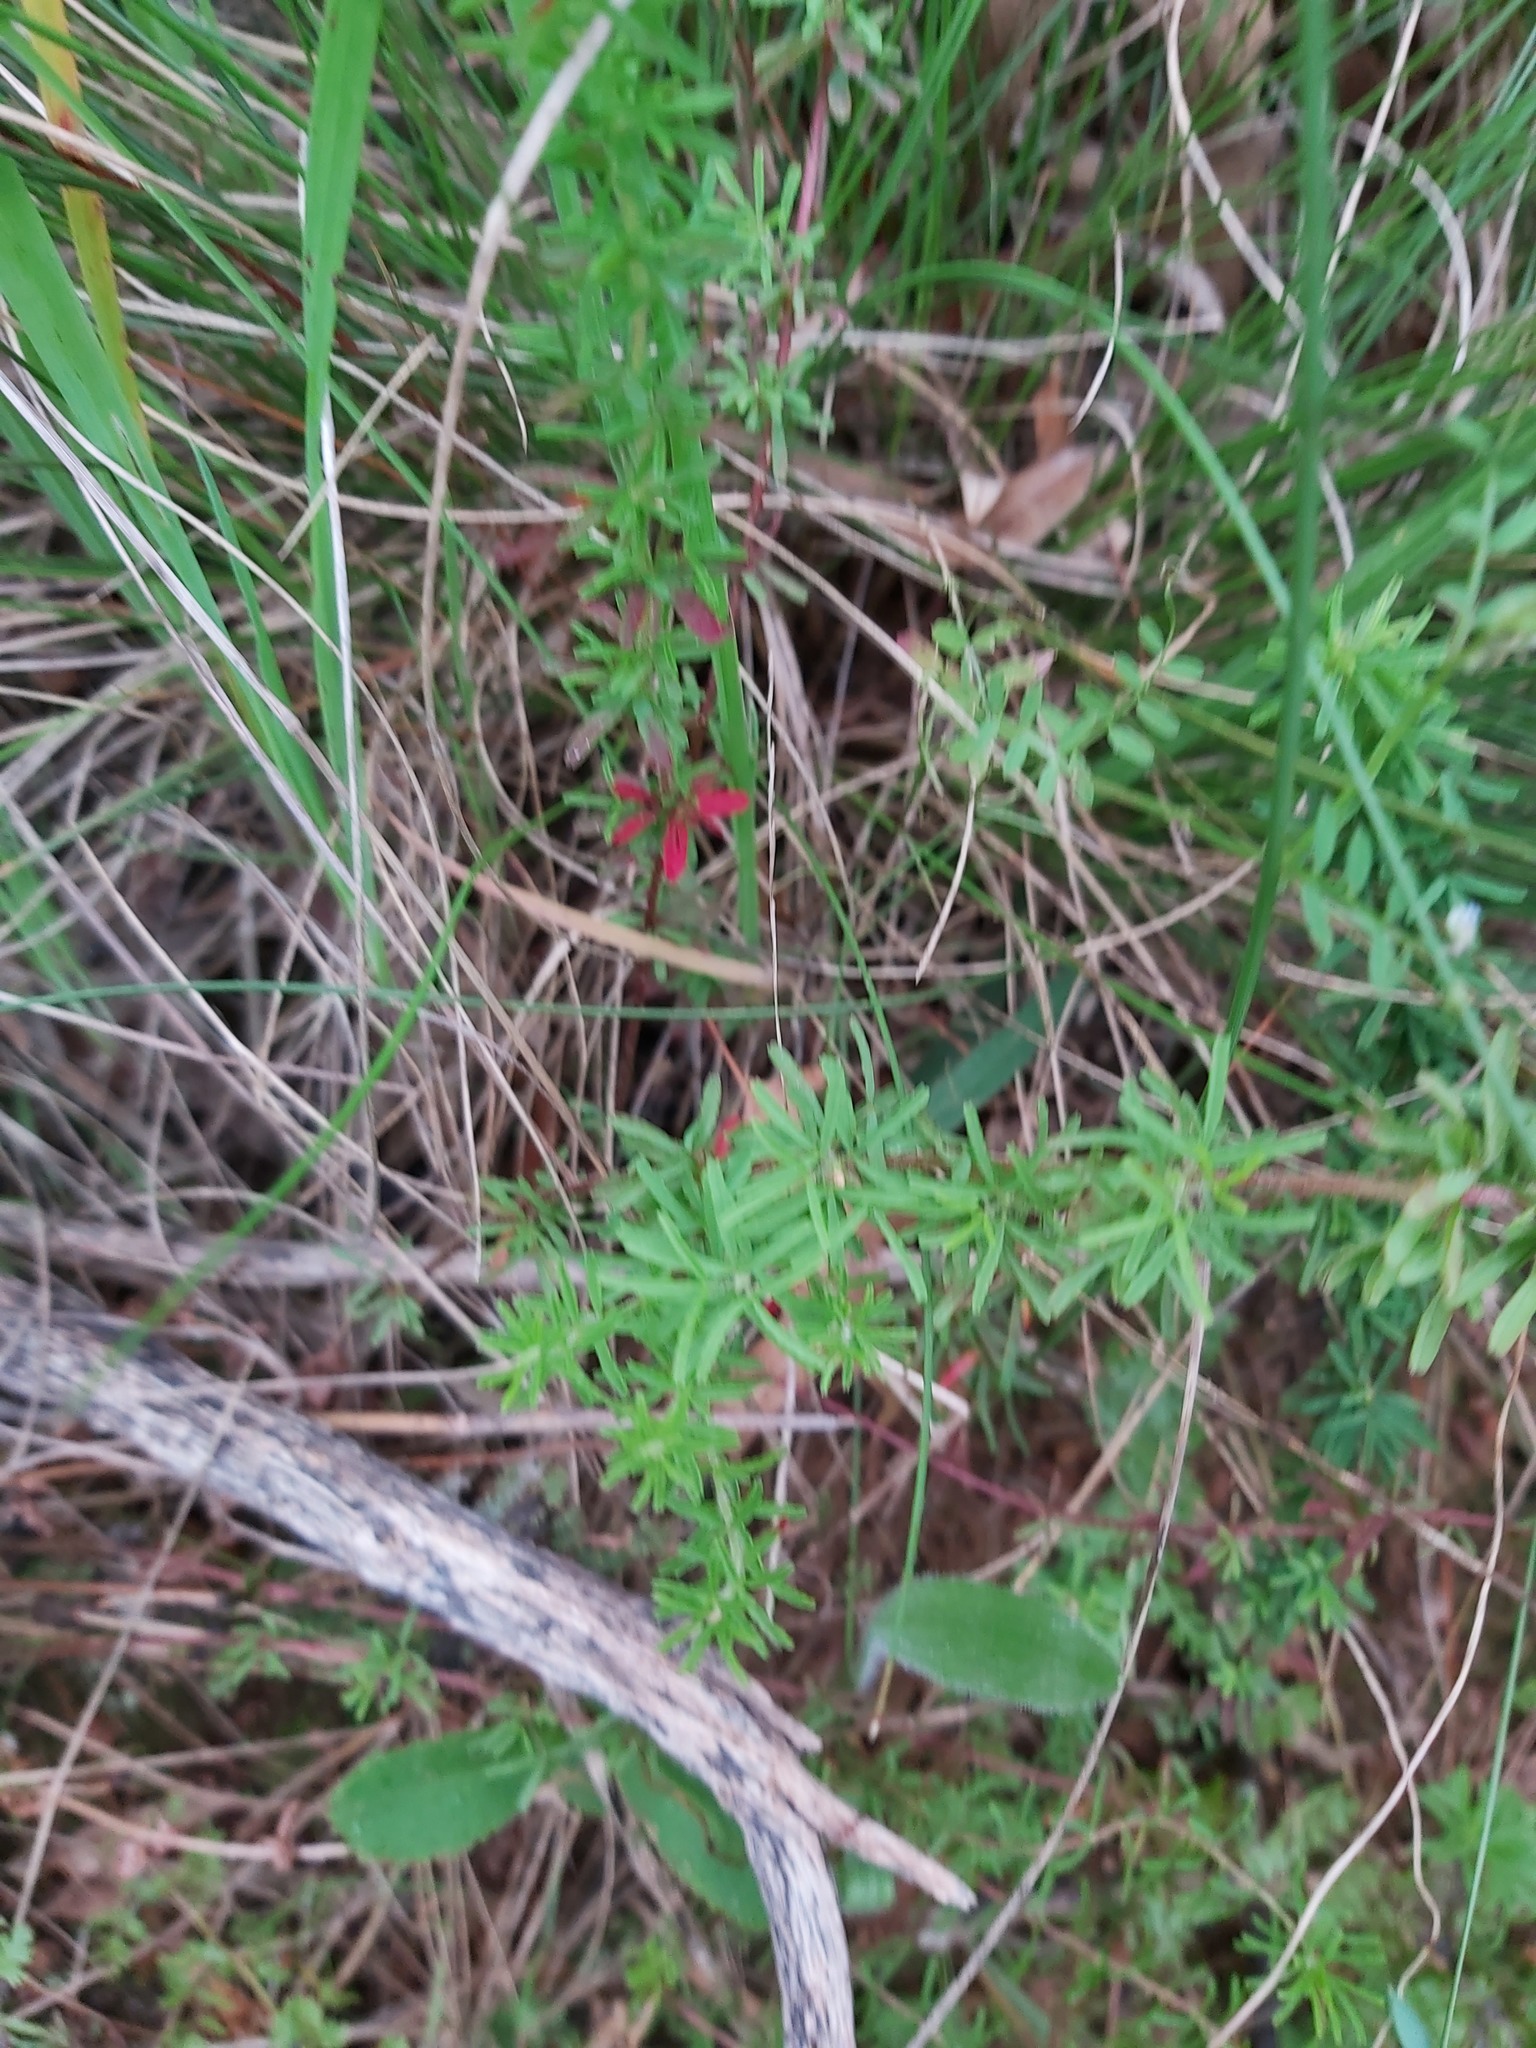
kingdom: Plantae
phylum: Tracheophyta
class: Magnoliopsida
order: Oxalidales
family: Oxalidaceae
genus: Oxalis
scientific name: Oxalis tenuifolia
